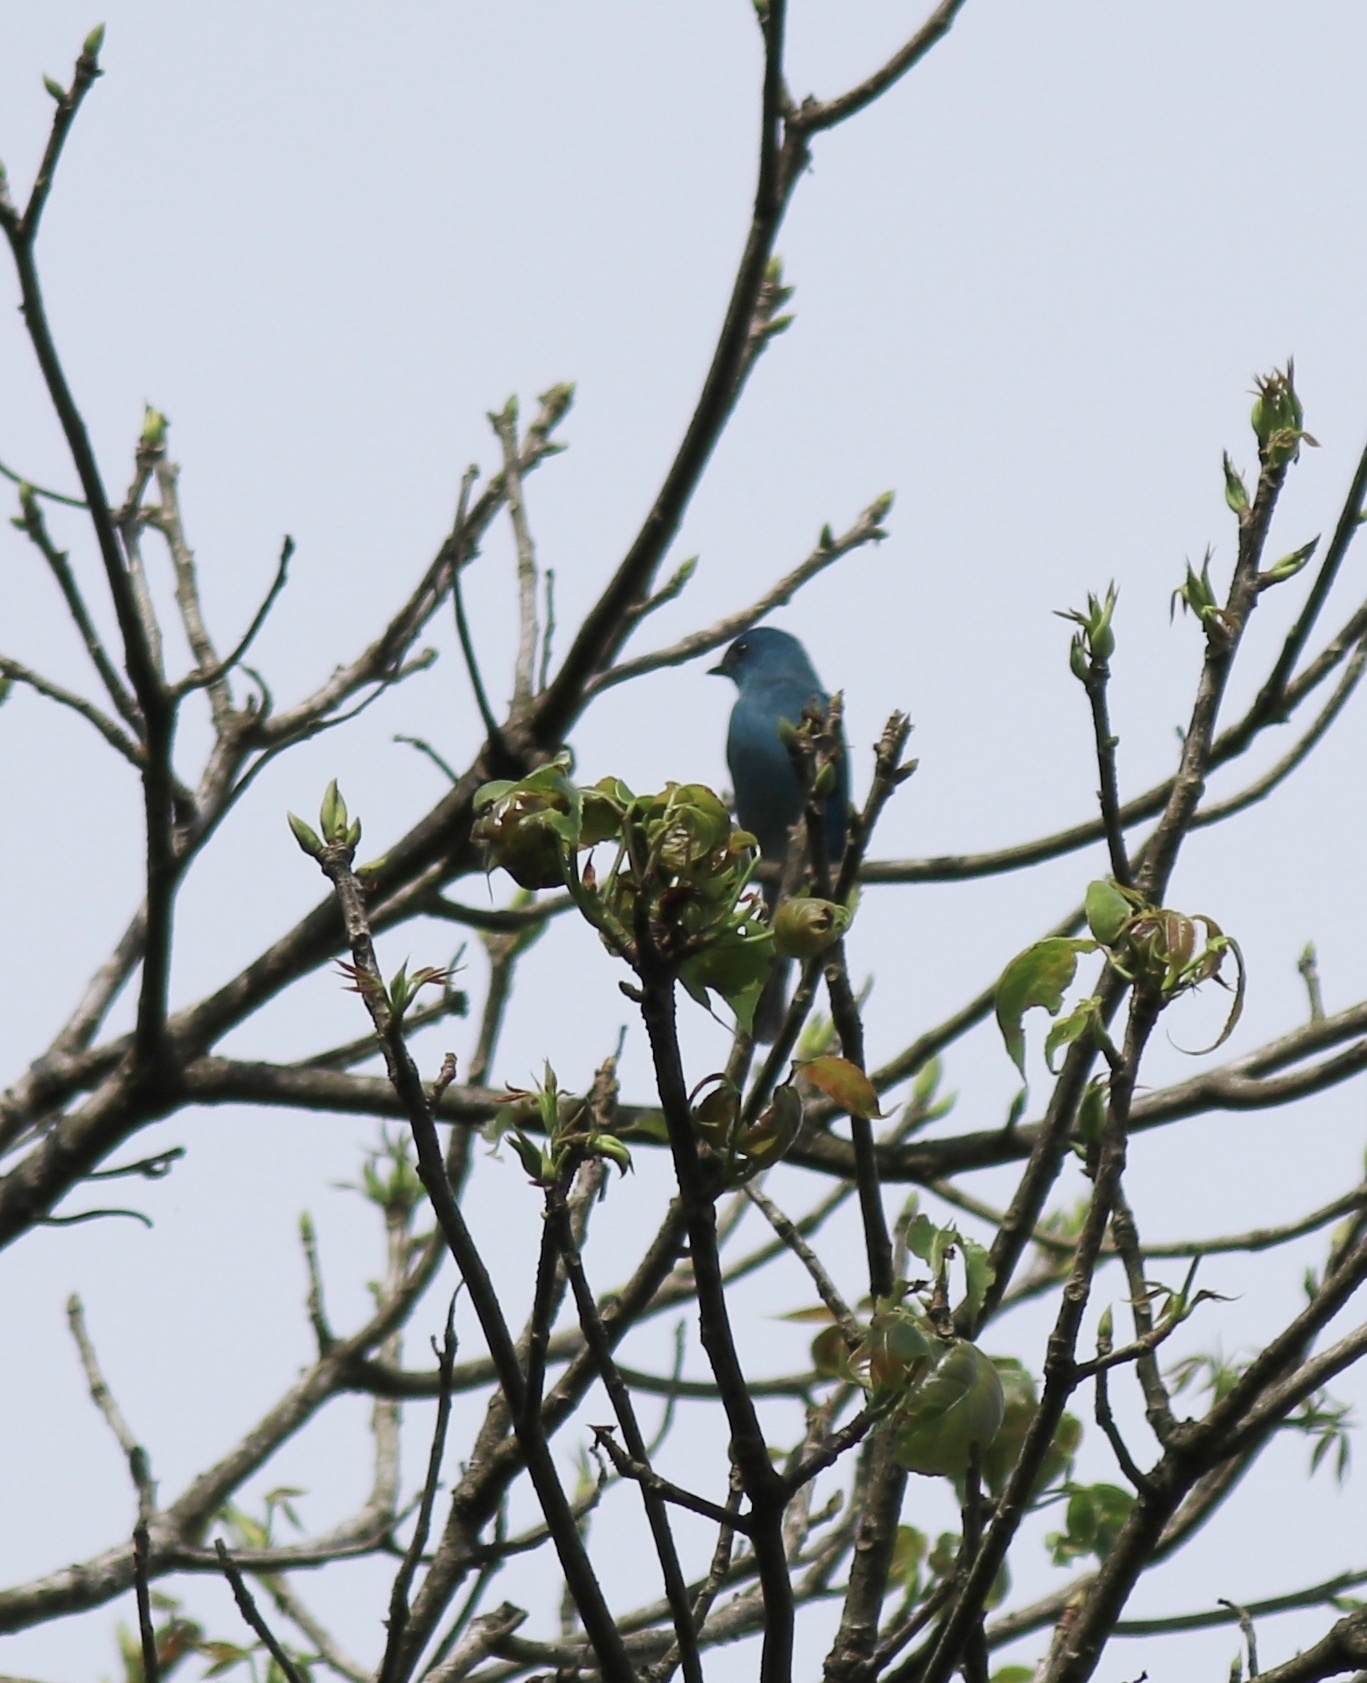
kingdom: Animalia
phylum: Chordata
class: Aves
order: Passeriformes
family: Muscicapidae
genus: Eumyias
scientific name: Eumyias thalassinus
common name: Verditer flycatcher
